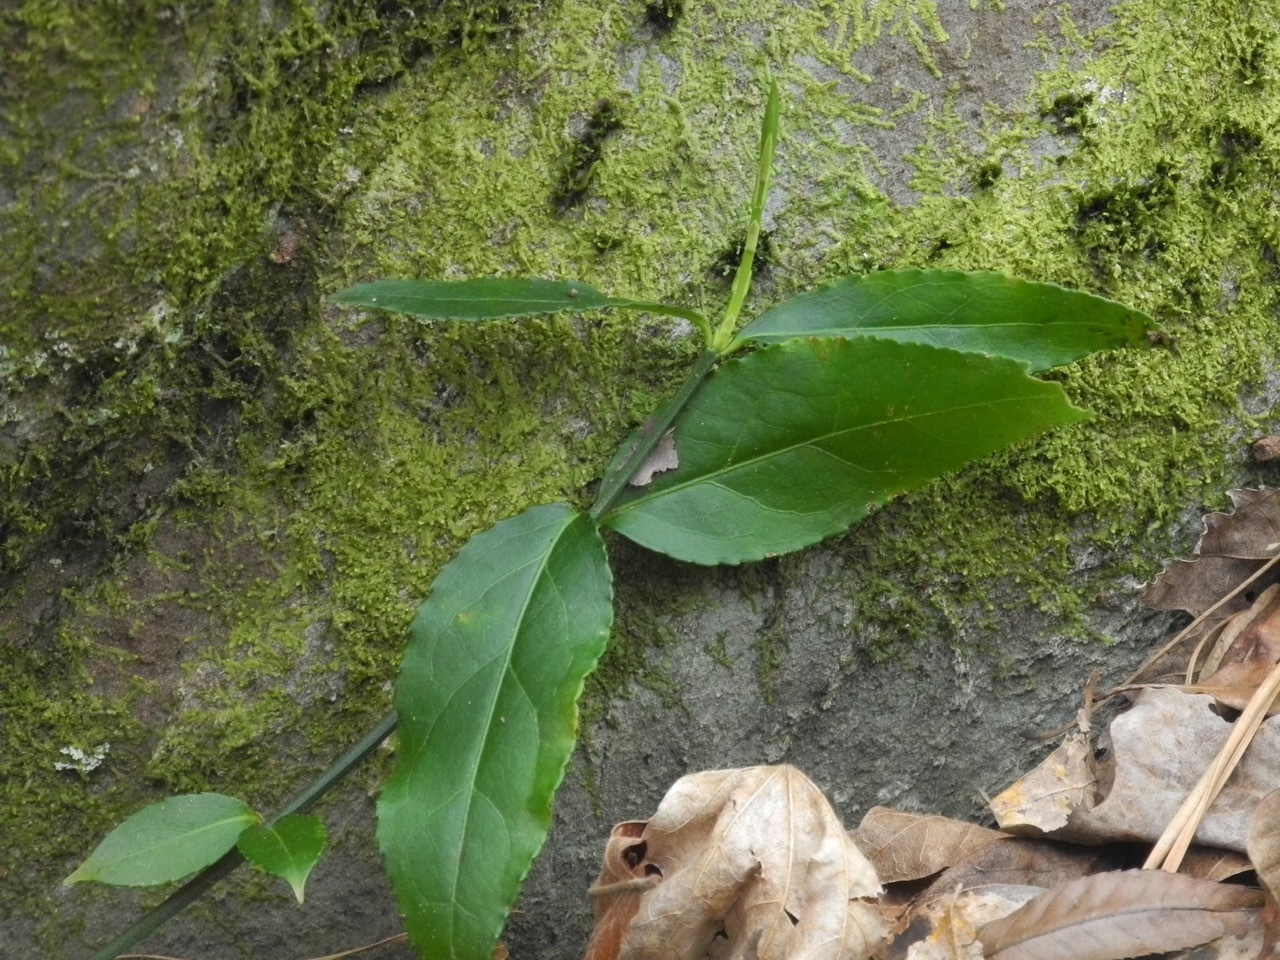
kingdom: Plantae
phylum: Tracheophyta
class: Magnoliopsida
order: Celastrales
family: Celastraceae
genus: Euonymus
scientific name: Euonymus americanus
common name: Bursting-heart
